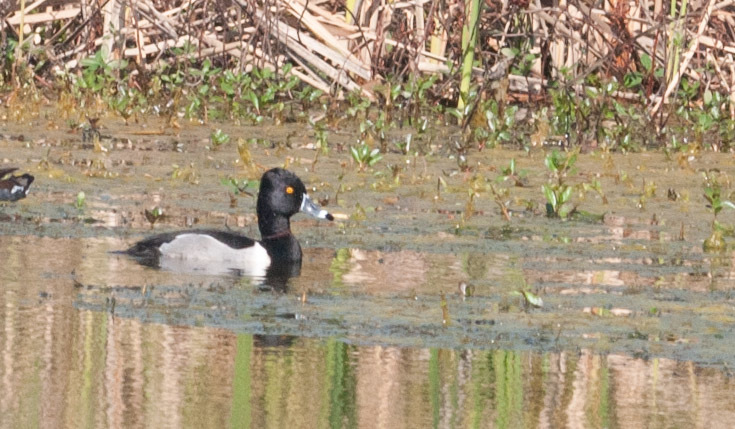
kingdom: Animalia
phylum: Chordata
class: Aves
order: Anseriformes
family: Anatidae
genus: Aythya
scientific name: Aythya collaris
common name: Ring-necked duck
